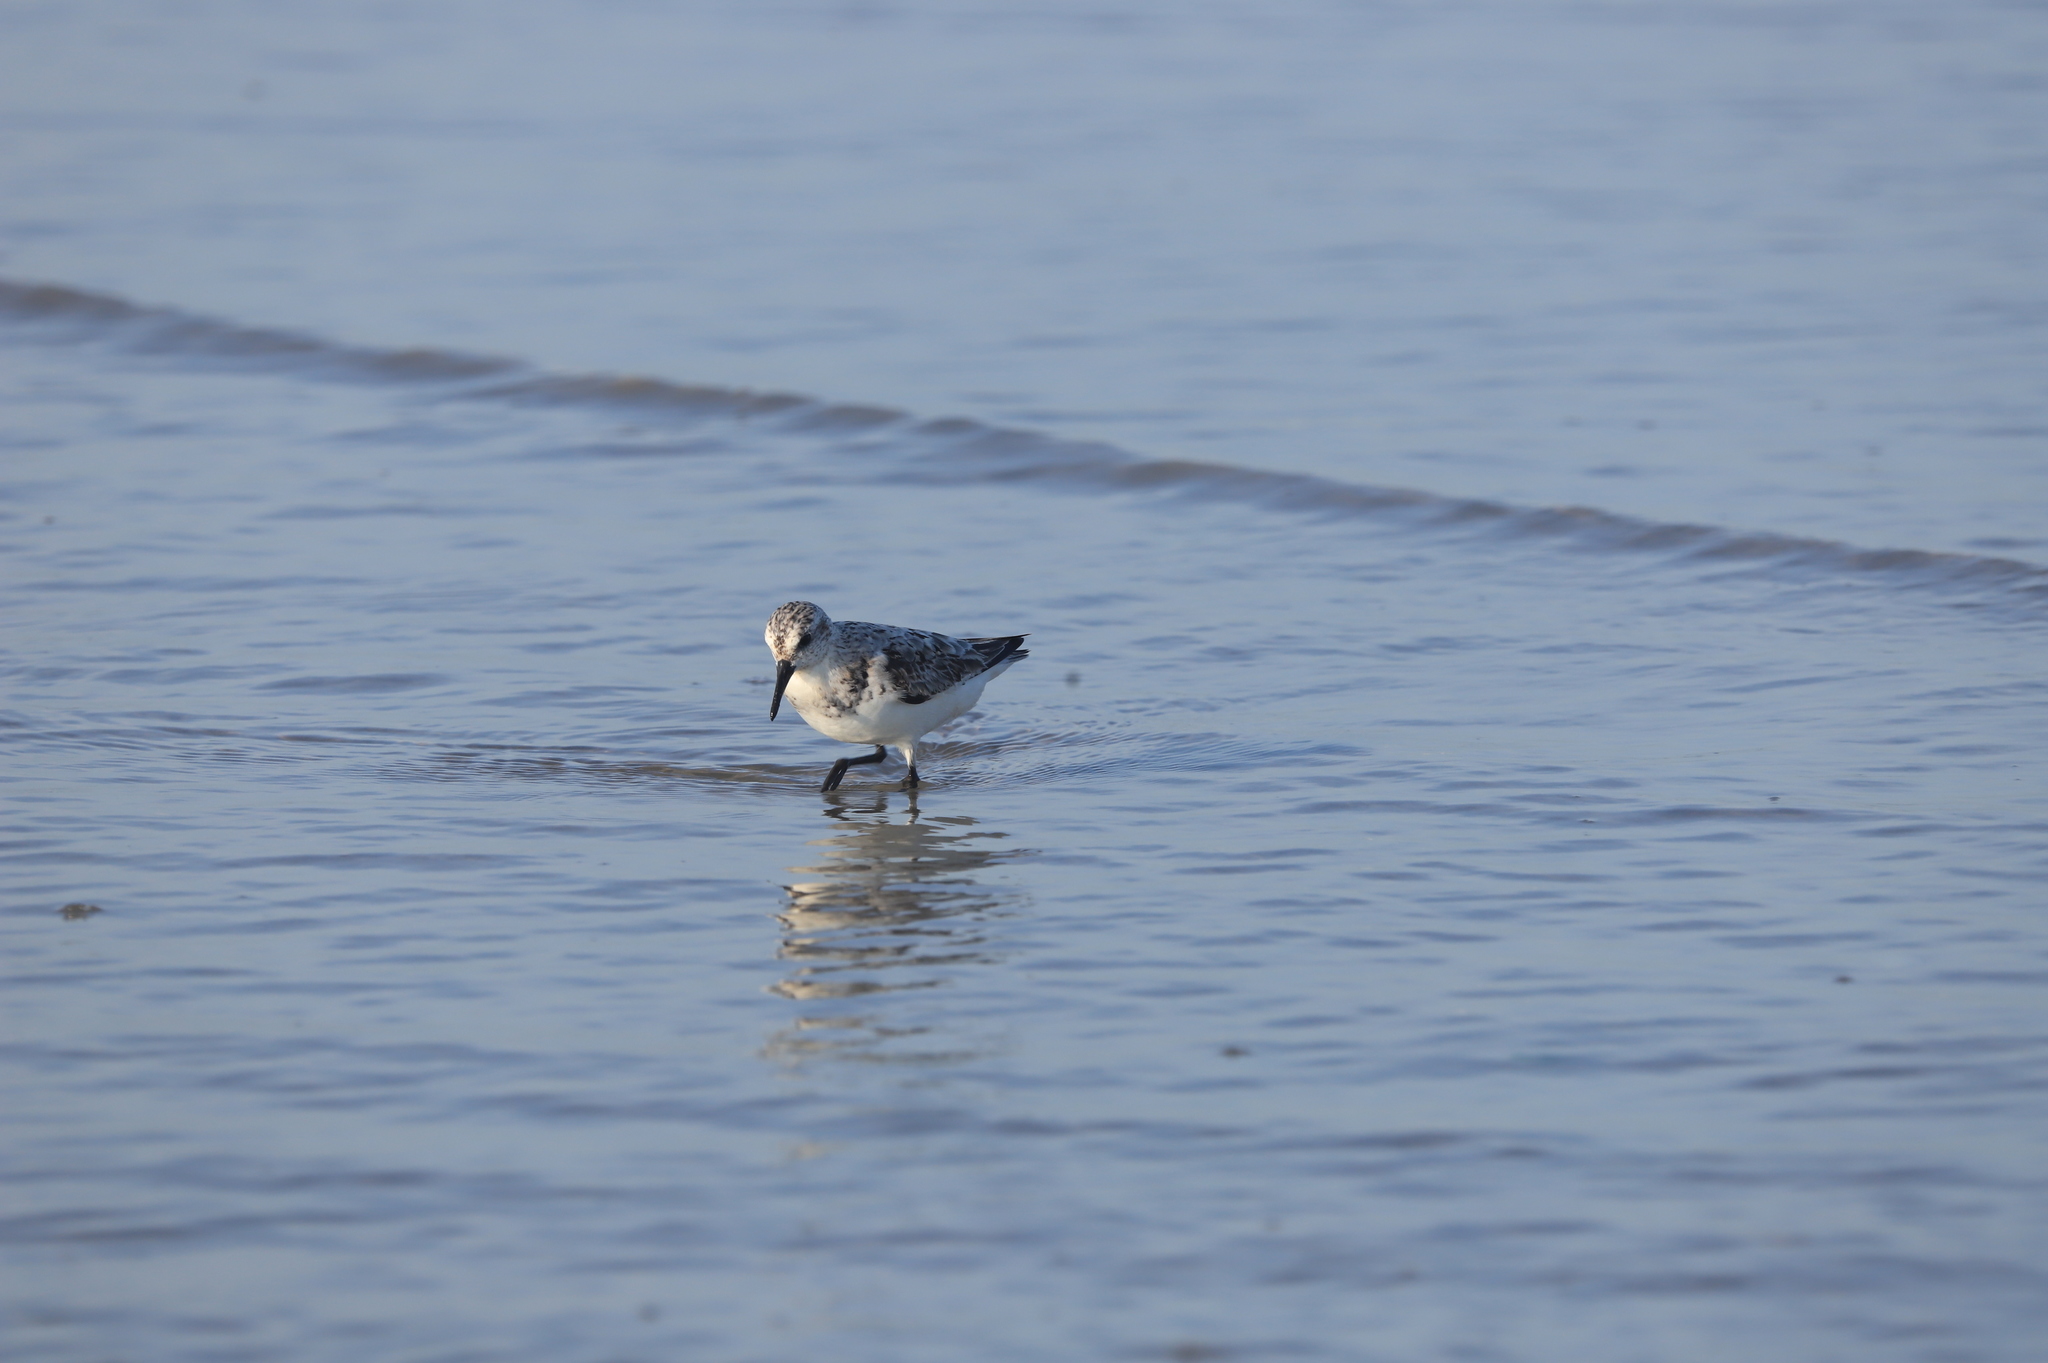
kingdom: Animalia
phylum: Chordata
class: Aves
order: Charadriiformes
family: Scolopacidae
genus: Calidris
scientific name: Calidris alba
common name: Sanderling
